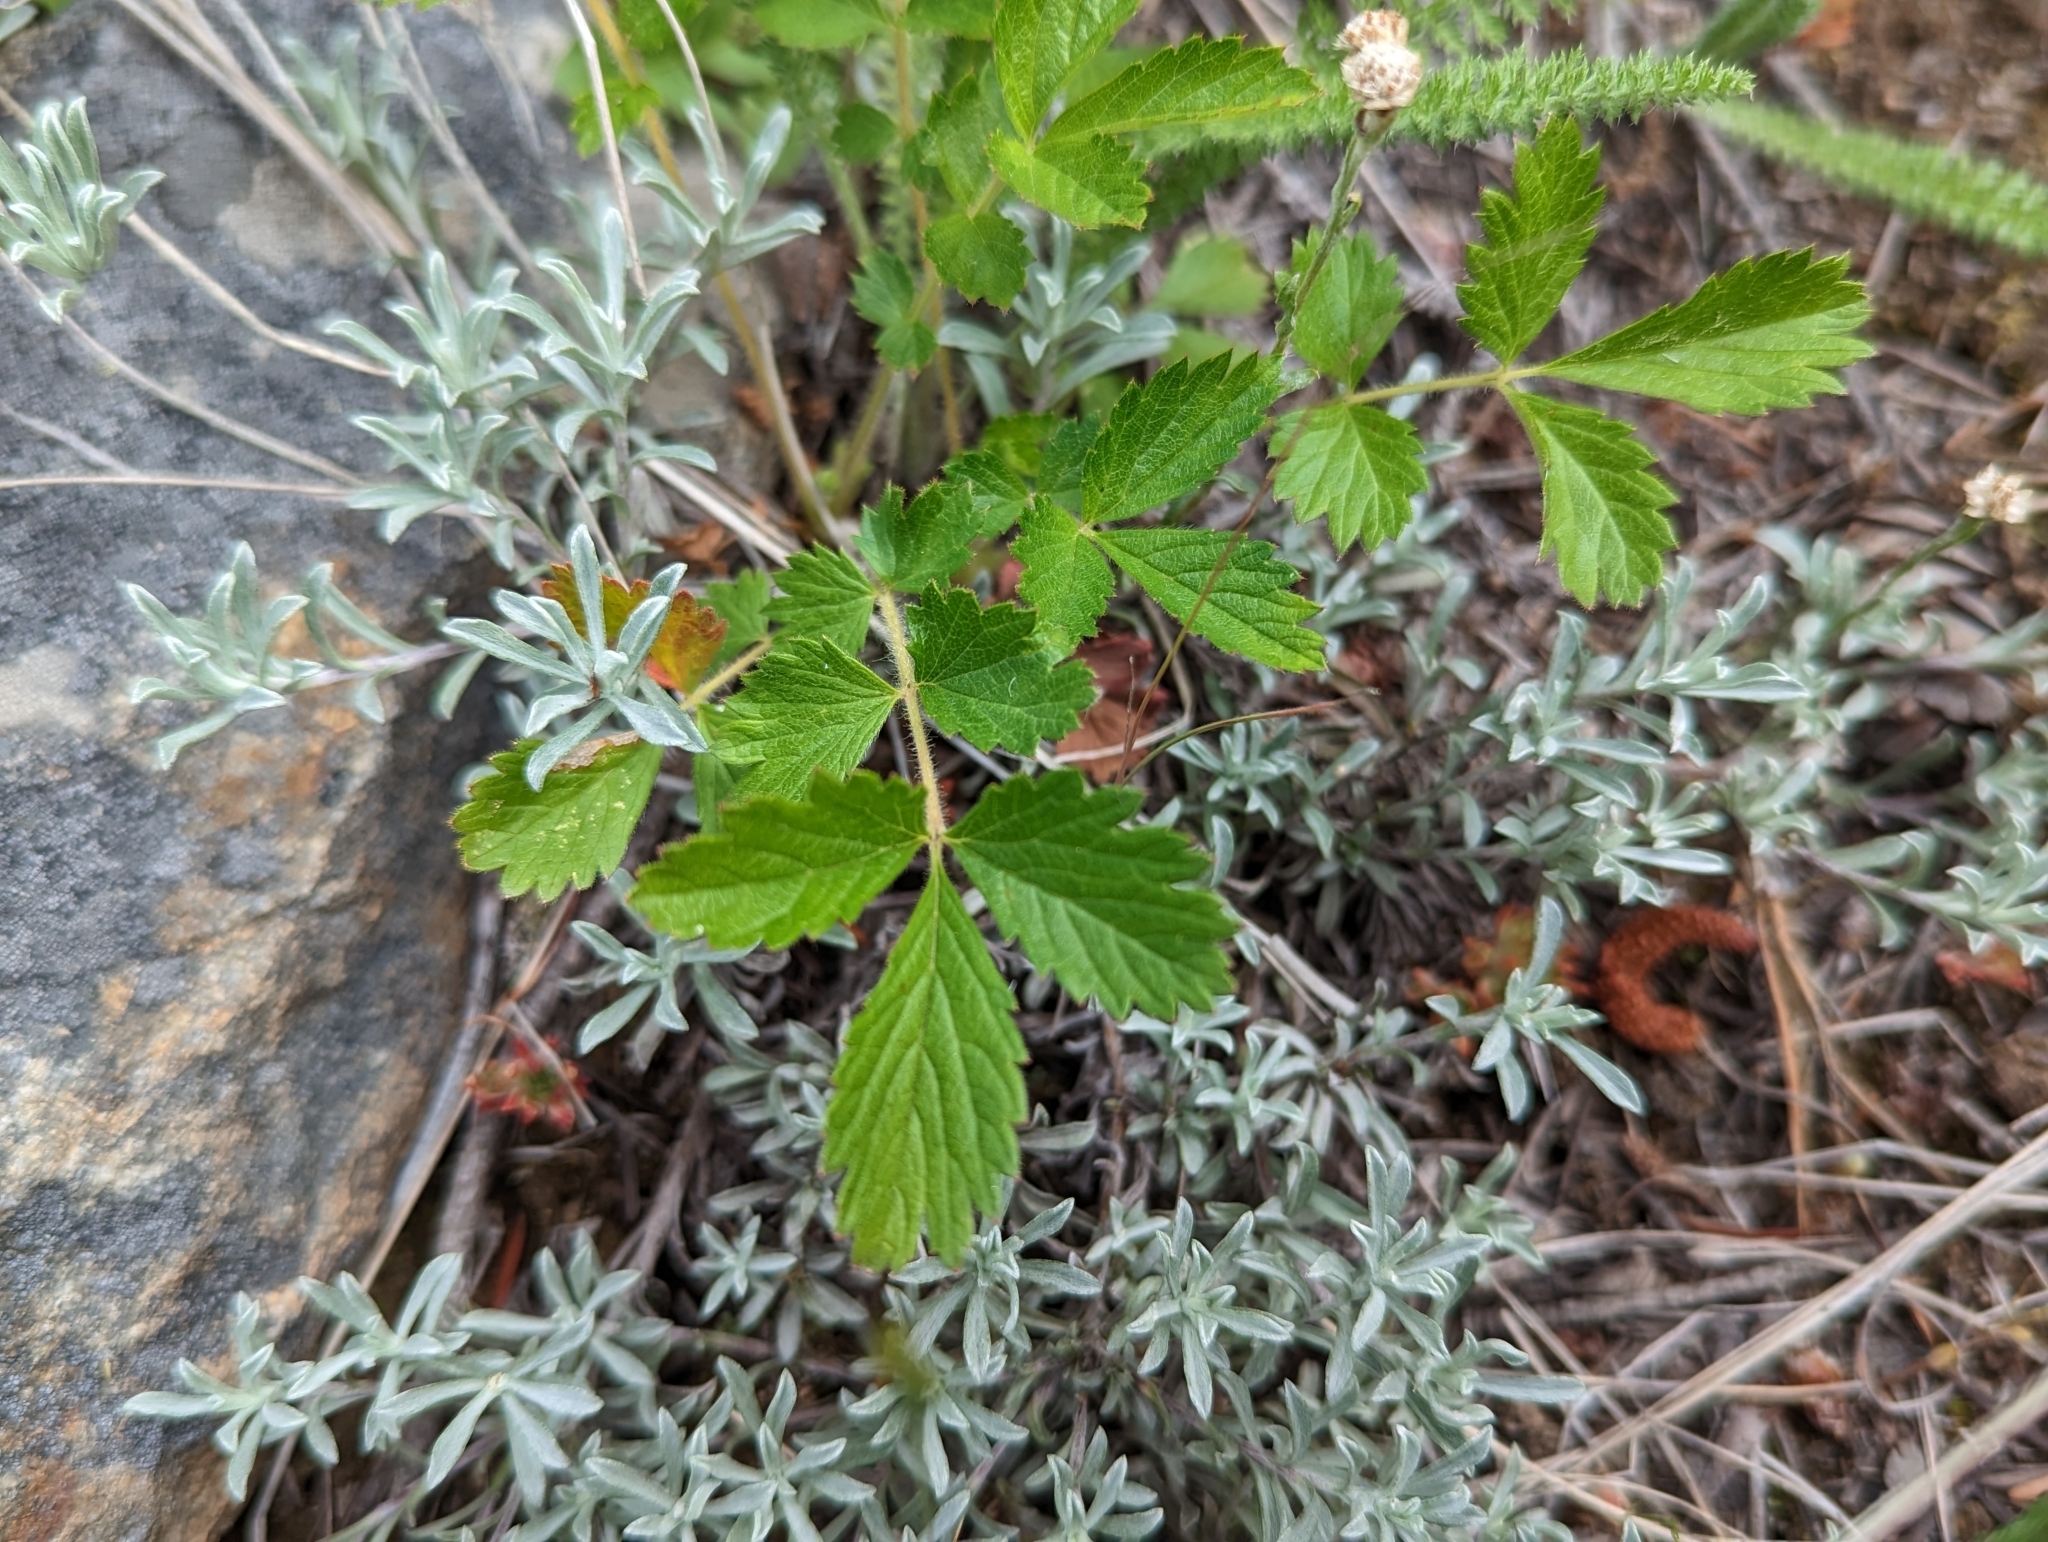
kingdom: Plantae
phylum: Tracheophyta
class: Magnoliopsida
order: Rosales
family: Rosaceae
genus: Drymocallis
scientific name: Drymocallis convallaria
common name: Cream cinquefoil
